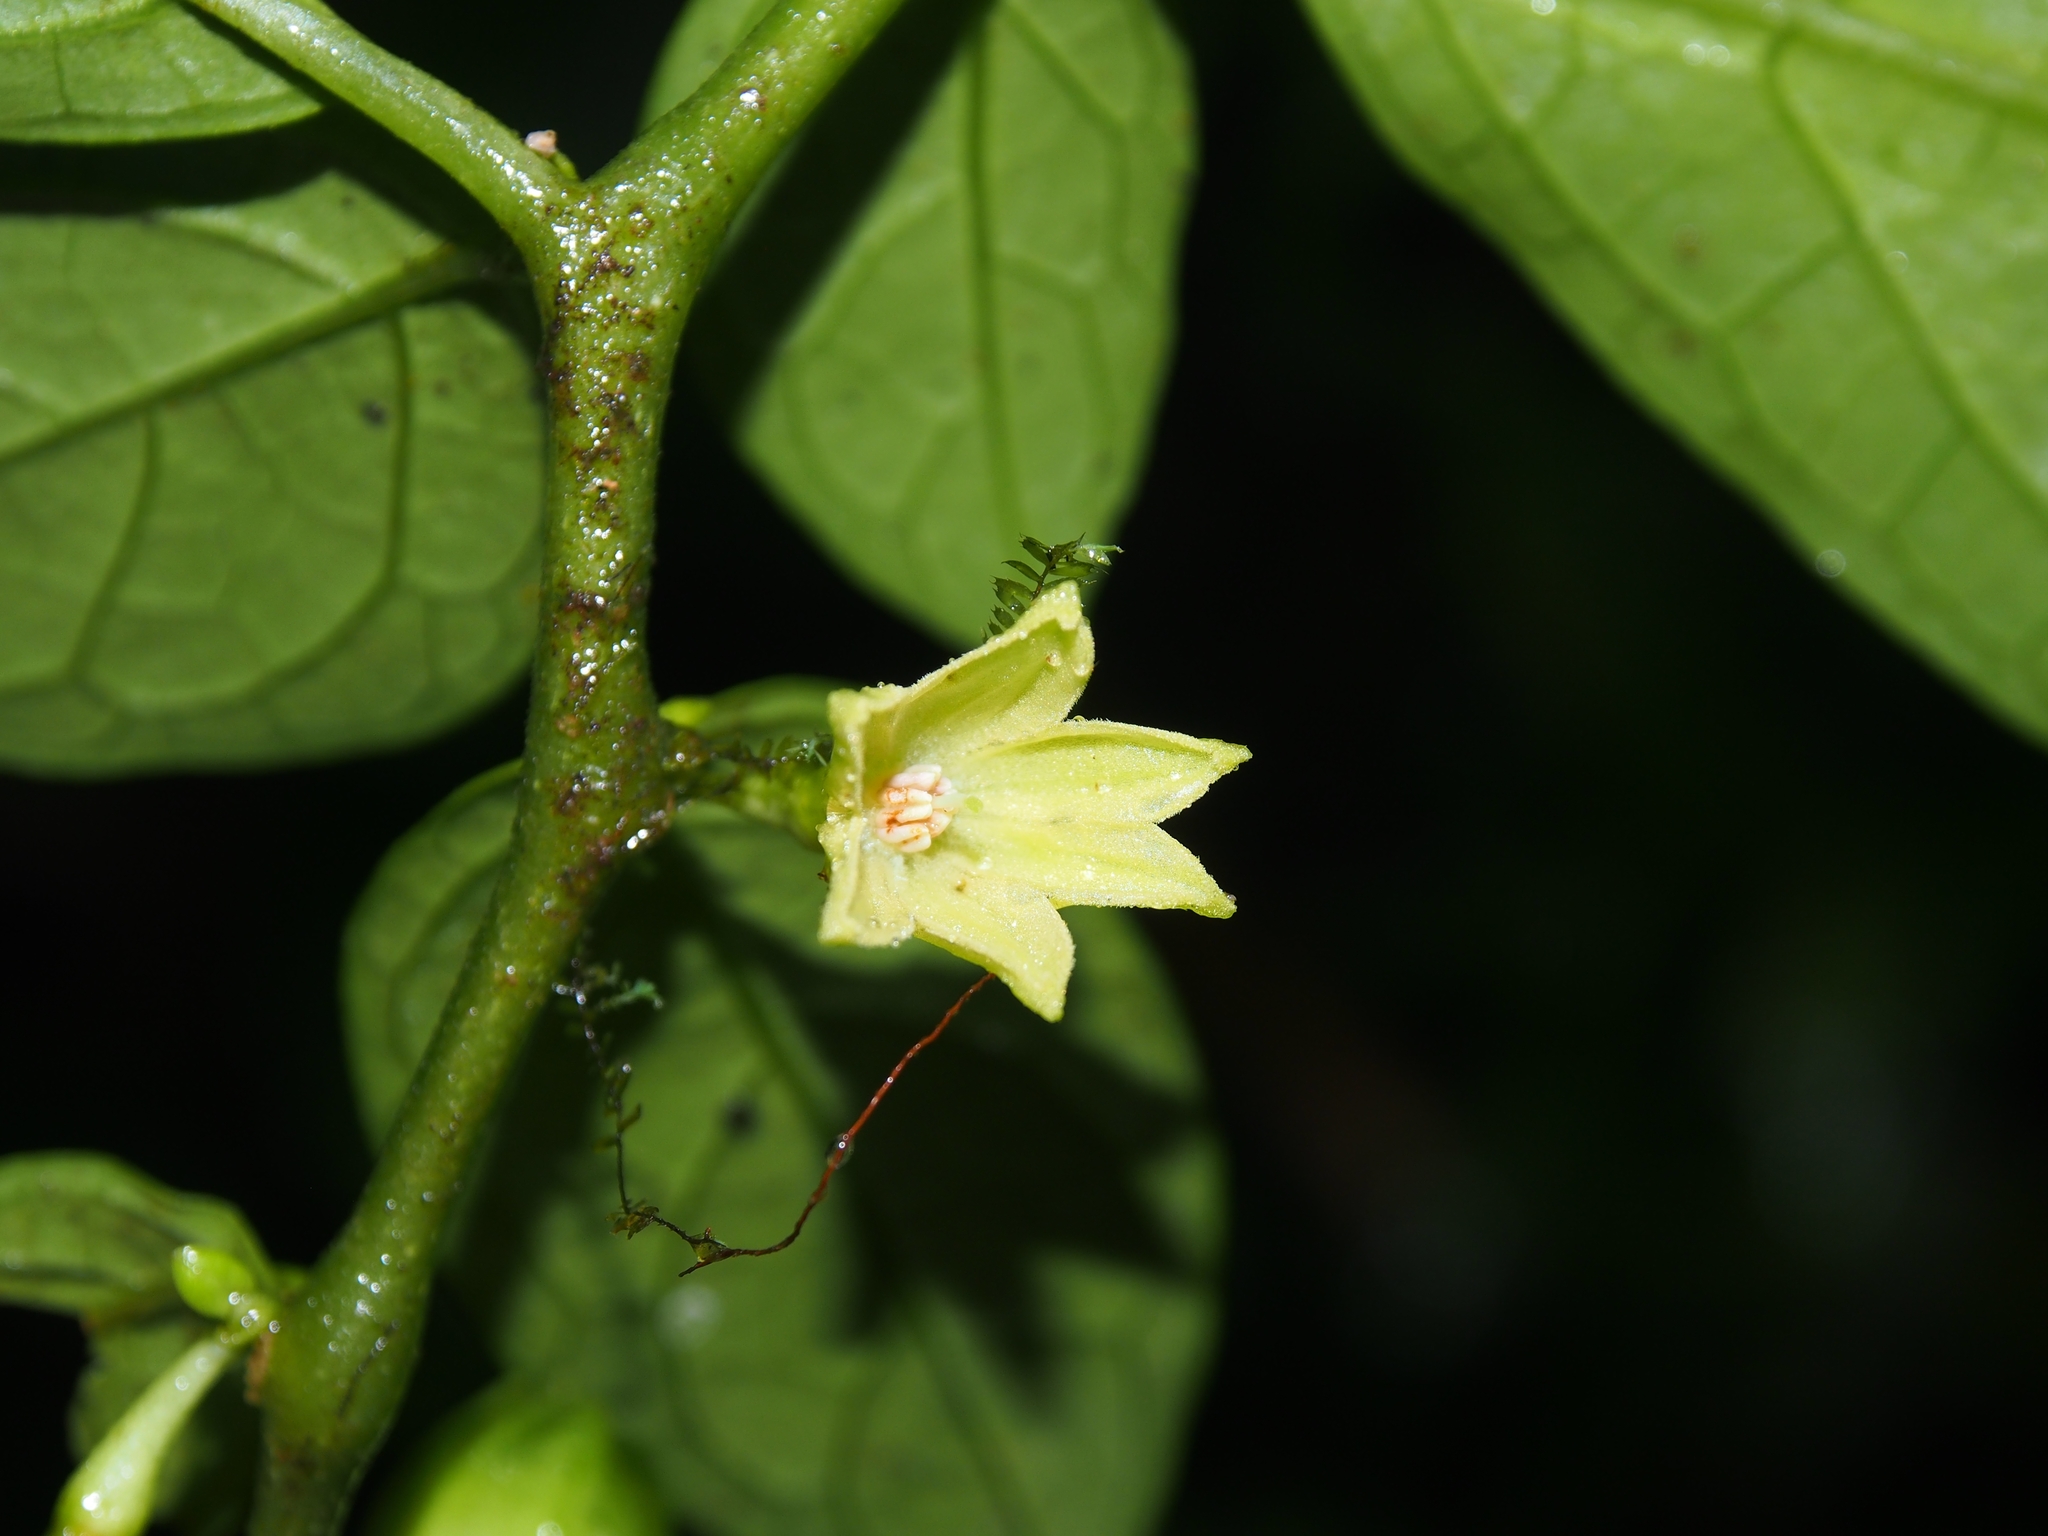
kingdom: Plantae
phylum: Tracheophyta
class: Magnoliopsida
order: Solanales
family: Solanaceae
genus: Cuatresia
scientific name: Cuatresia riparia
